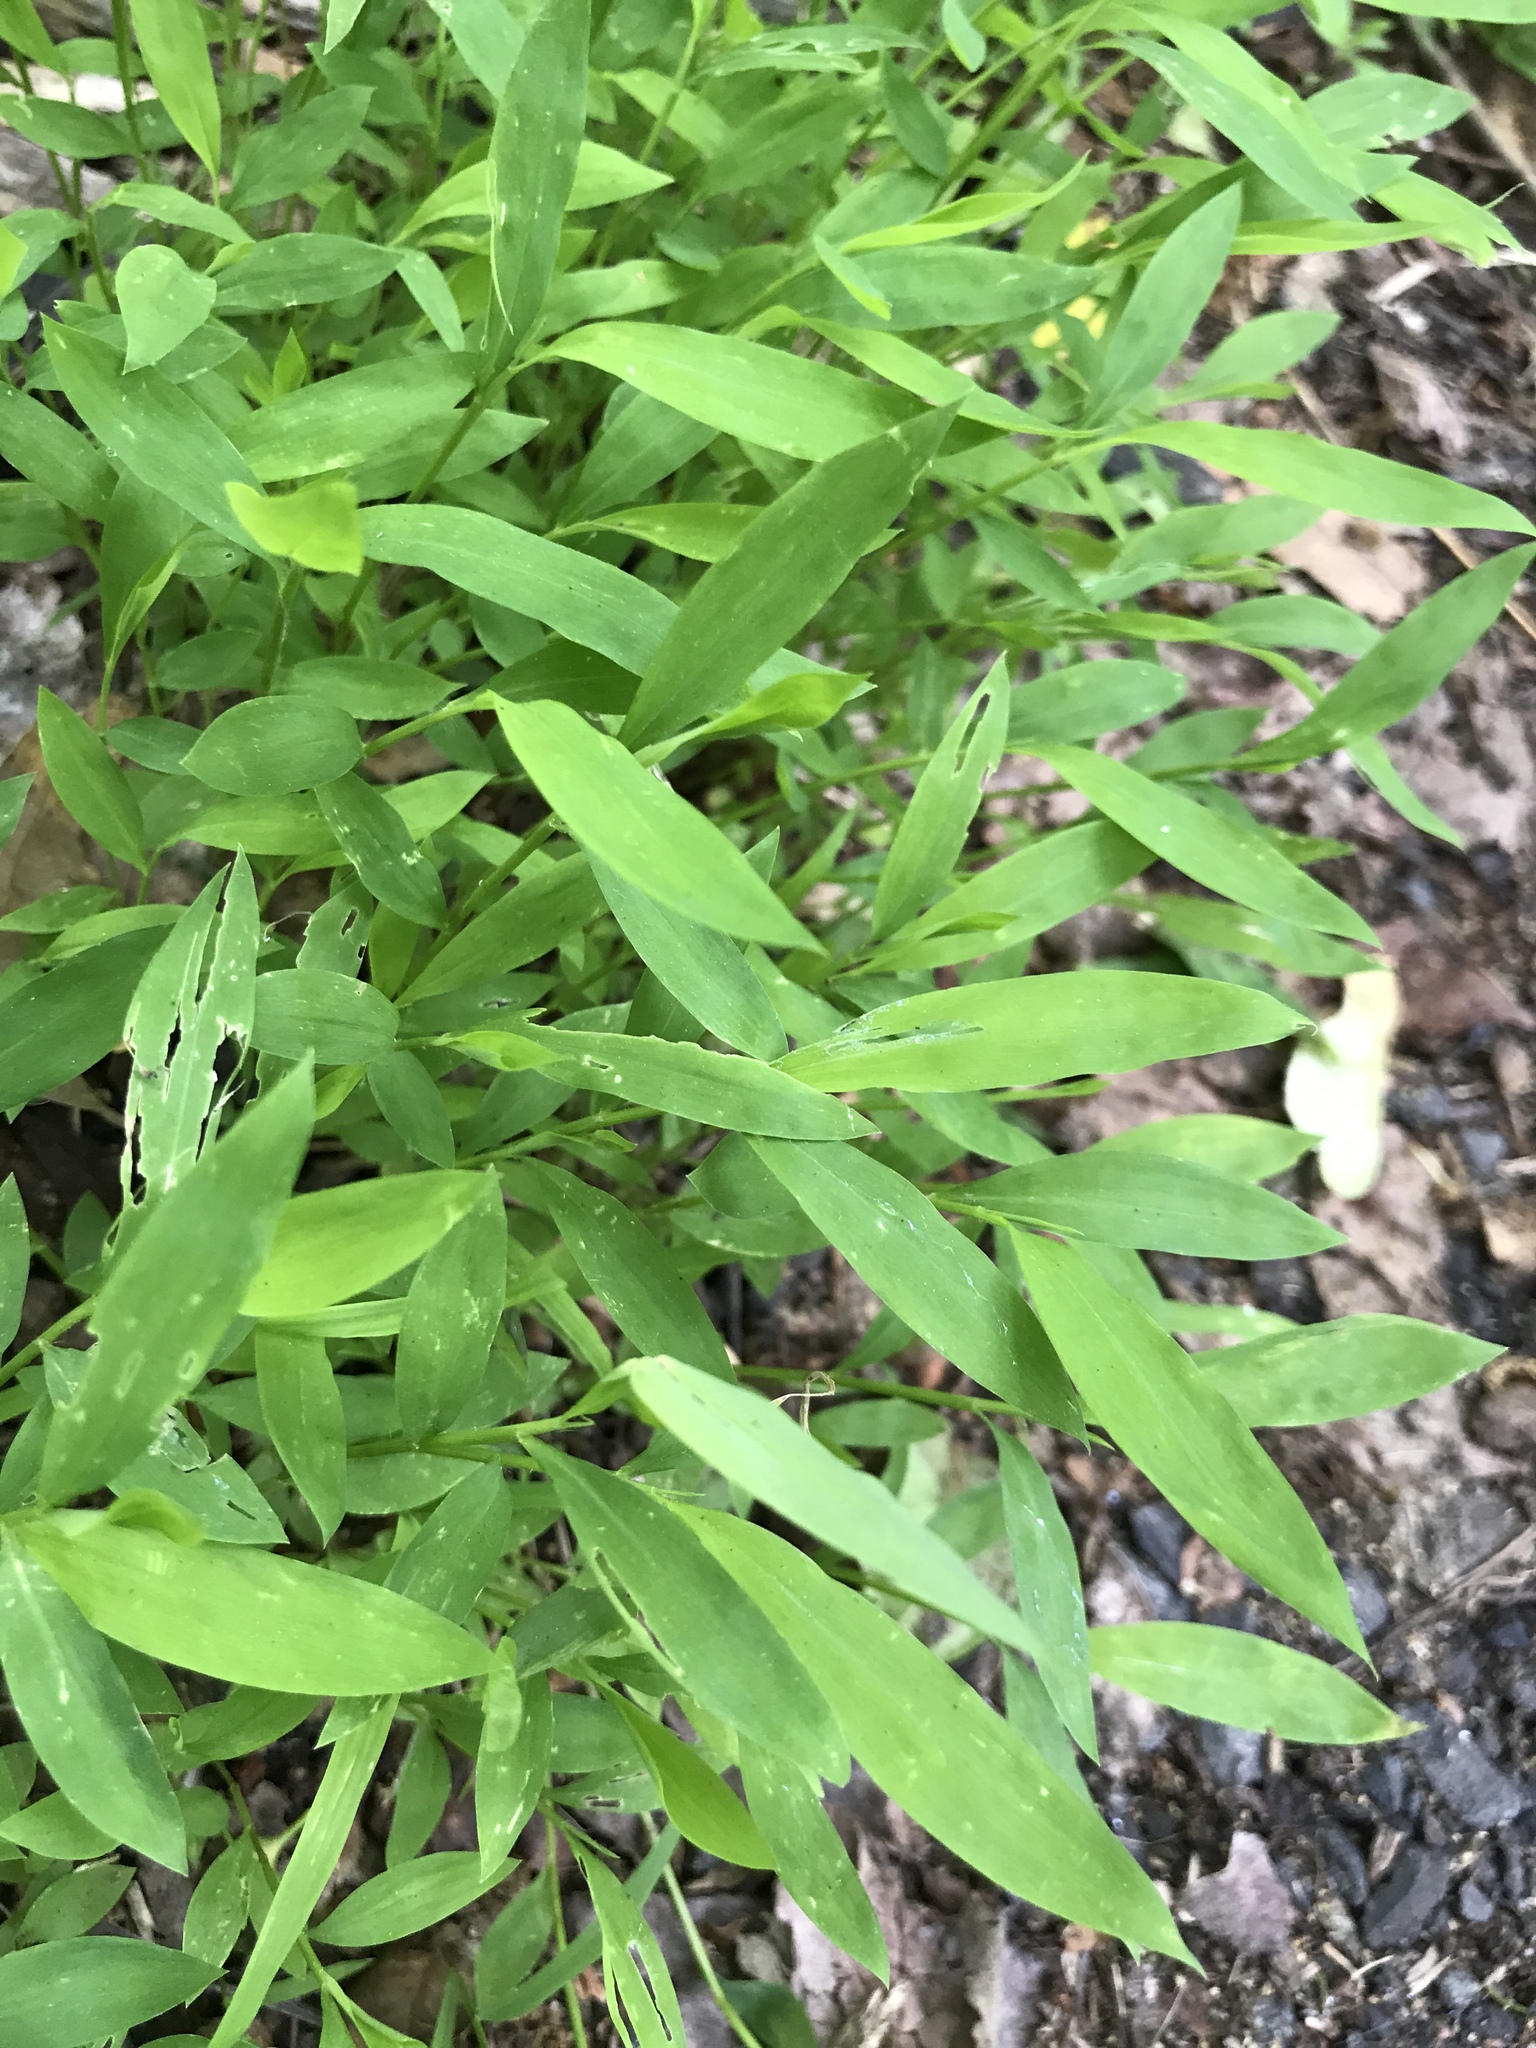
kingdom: Plantae
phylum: Tracheophyta
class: Liliopsida
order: Poales
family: Poaceae
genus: Microstegium
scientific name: Microstegium vimineum
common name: Japanese stiltgrass
